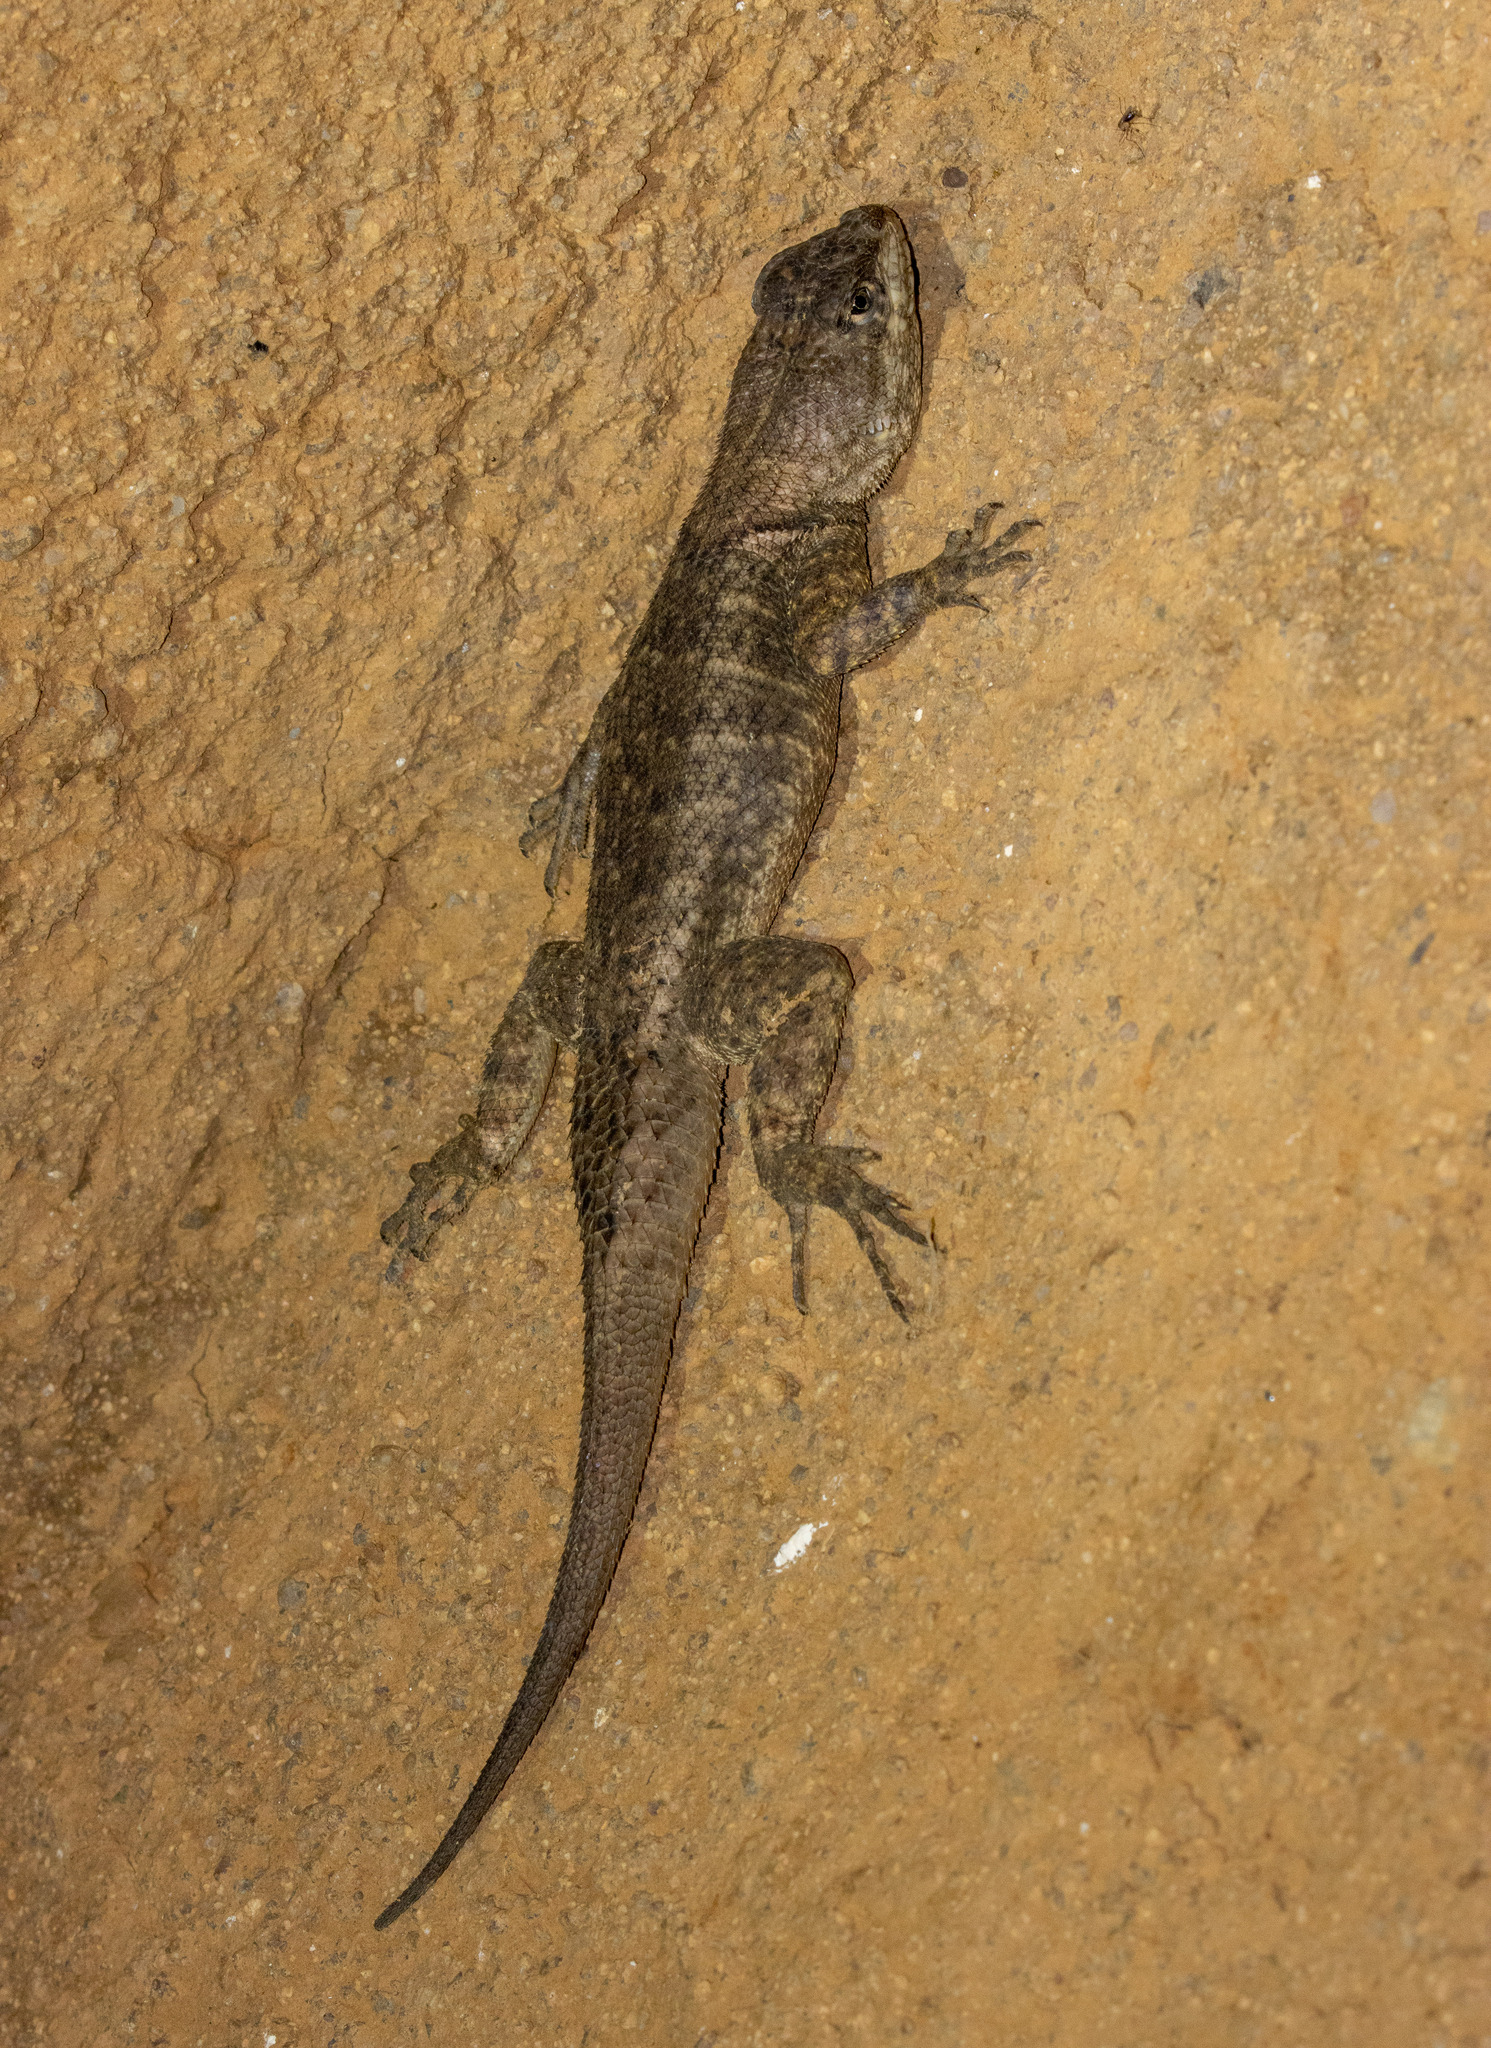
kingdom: Animalia
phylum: Chordata
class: Squamata
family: Tropiduridae
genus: Tropidurus
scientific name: Tropidurus hispidus
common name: Peters' lava lizard
